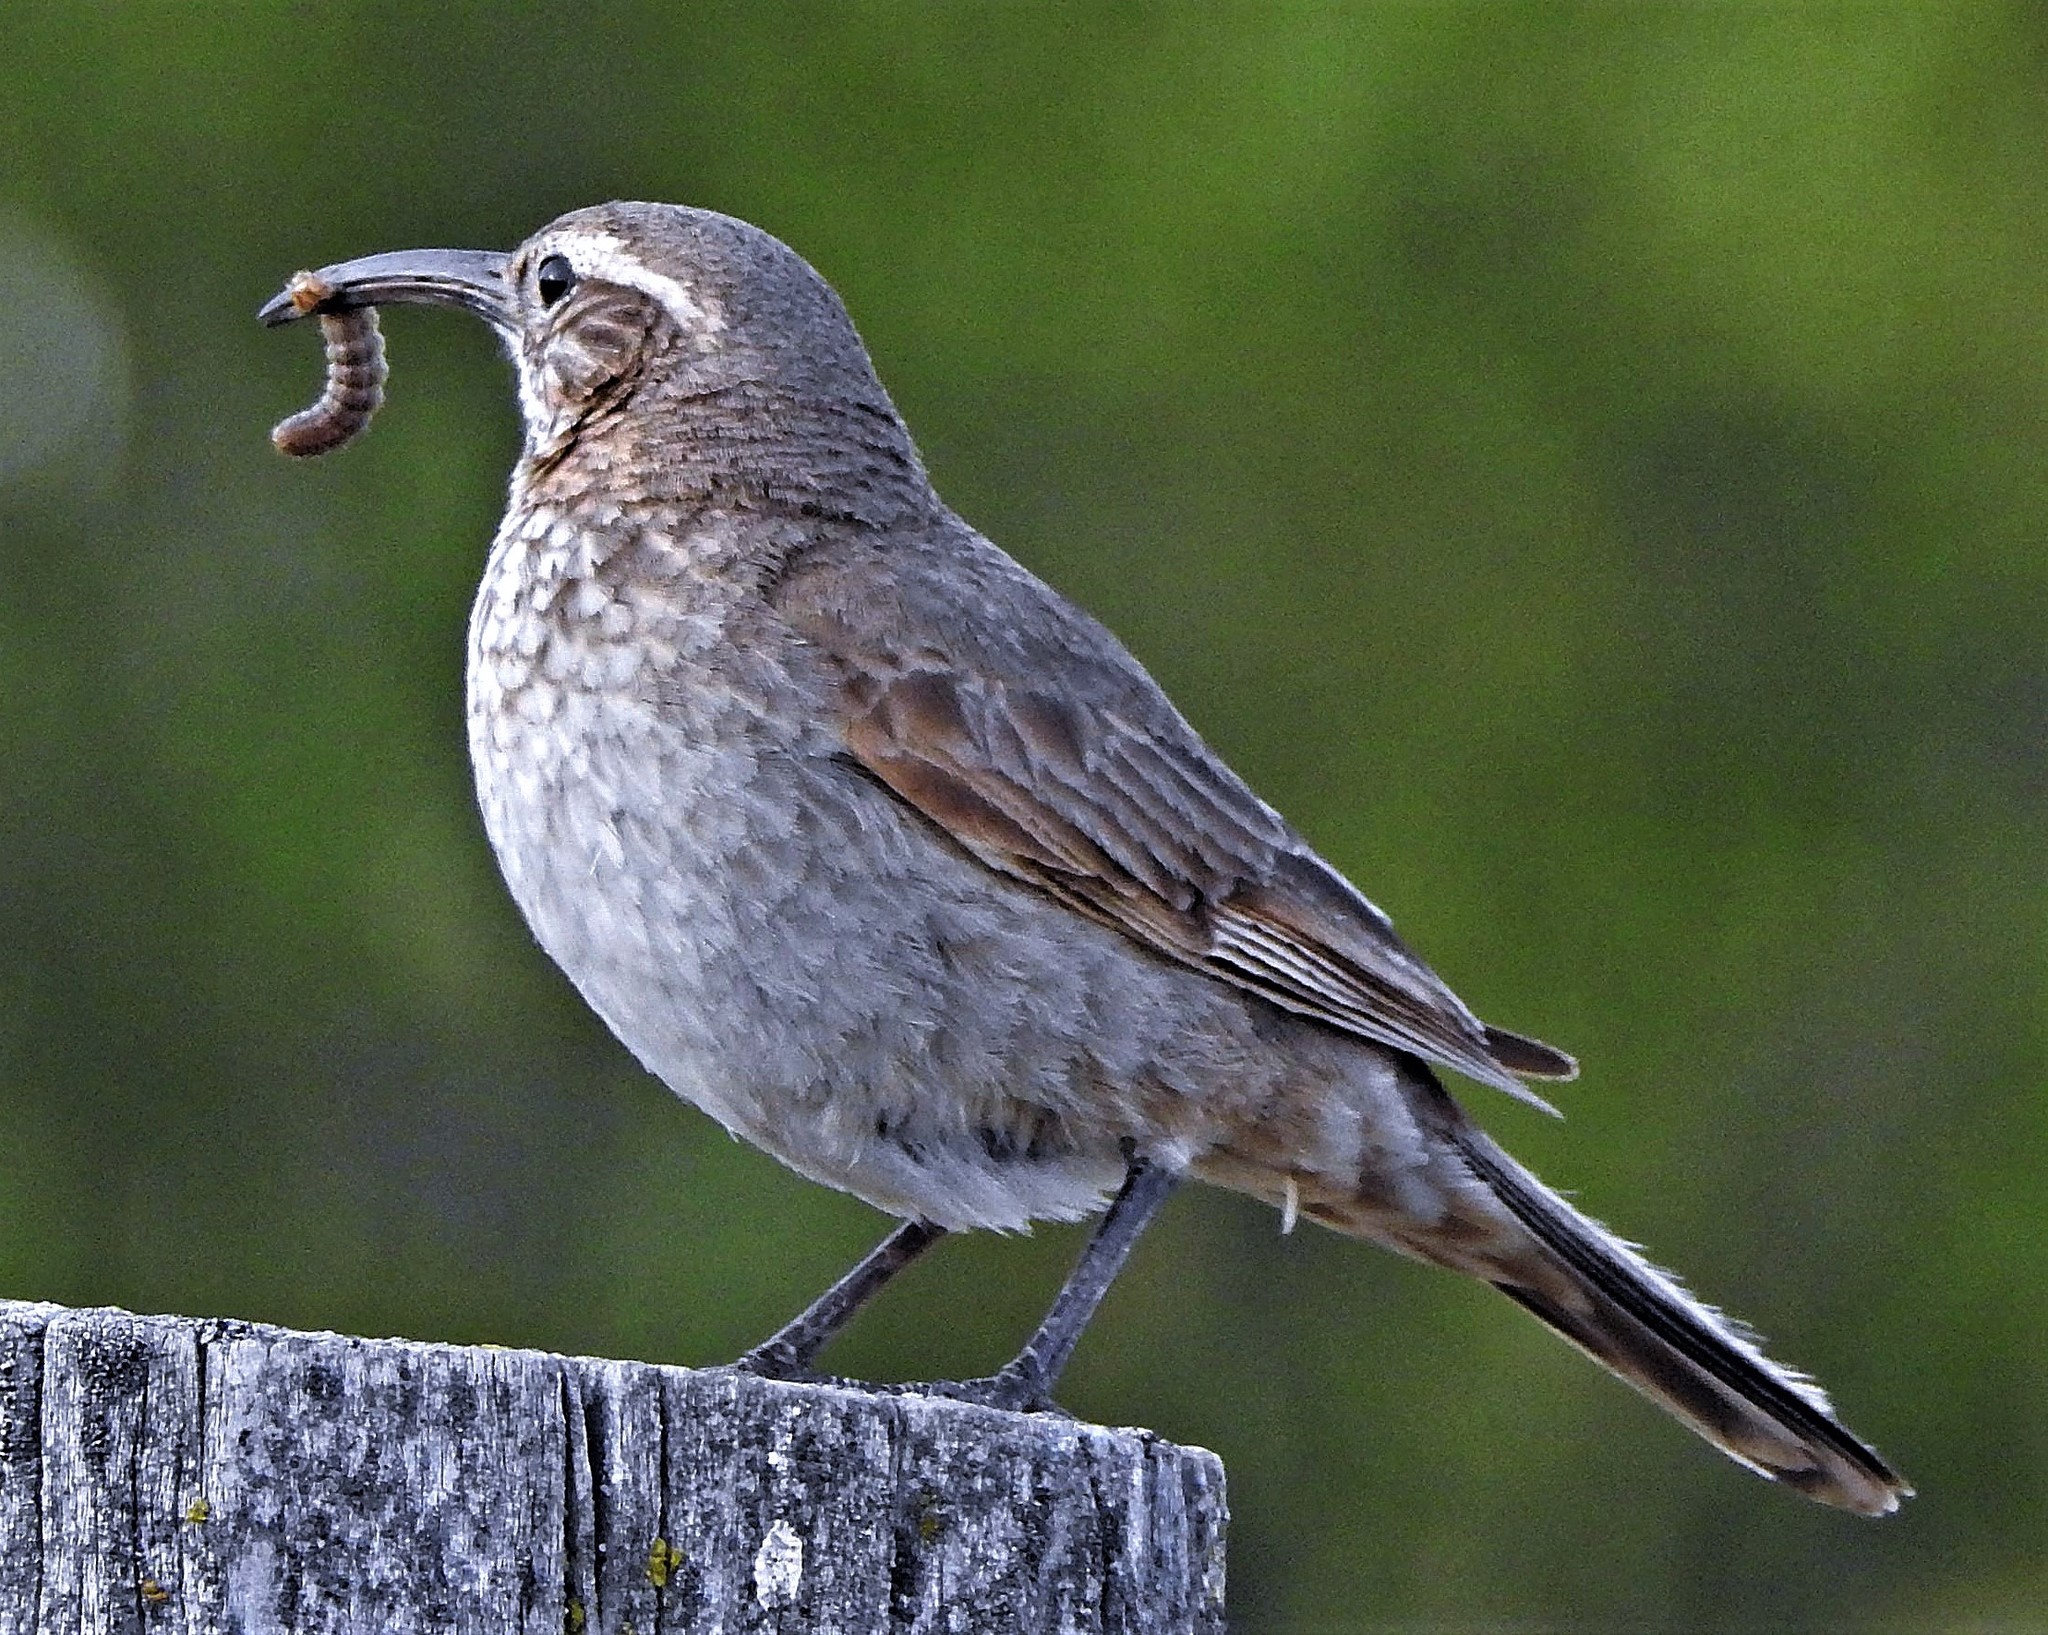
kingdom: Animalia
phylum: Chordata
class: Aves
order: Passeriformes
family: Furnariidae
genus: Upucerthia
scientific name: Upucerthia dumetaria
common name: Scale-throated earthcreeper
